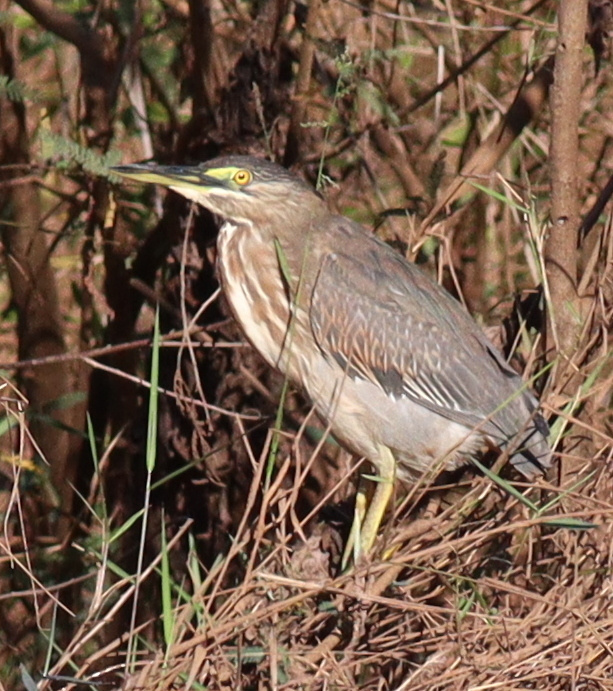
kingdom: Animalia
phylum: Chordata
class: Aves
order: Pelecaniformes
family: Ardeidae
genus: Butorides
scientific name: Butorides striata
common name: Striated heron
